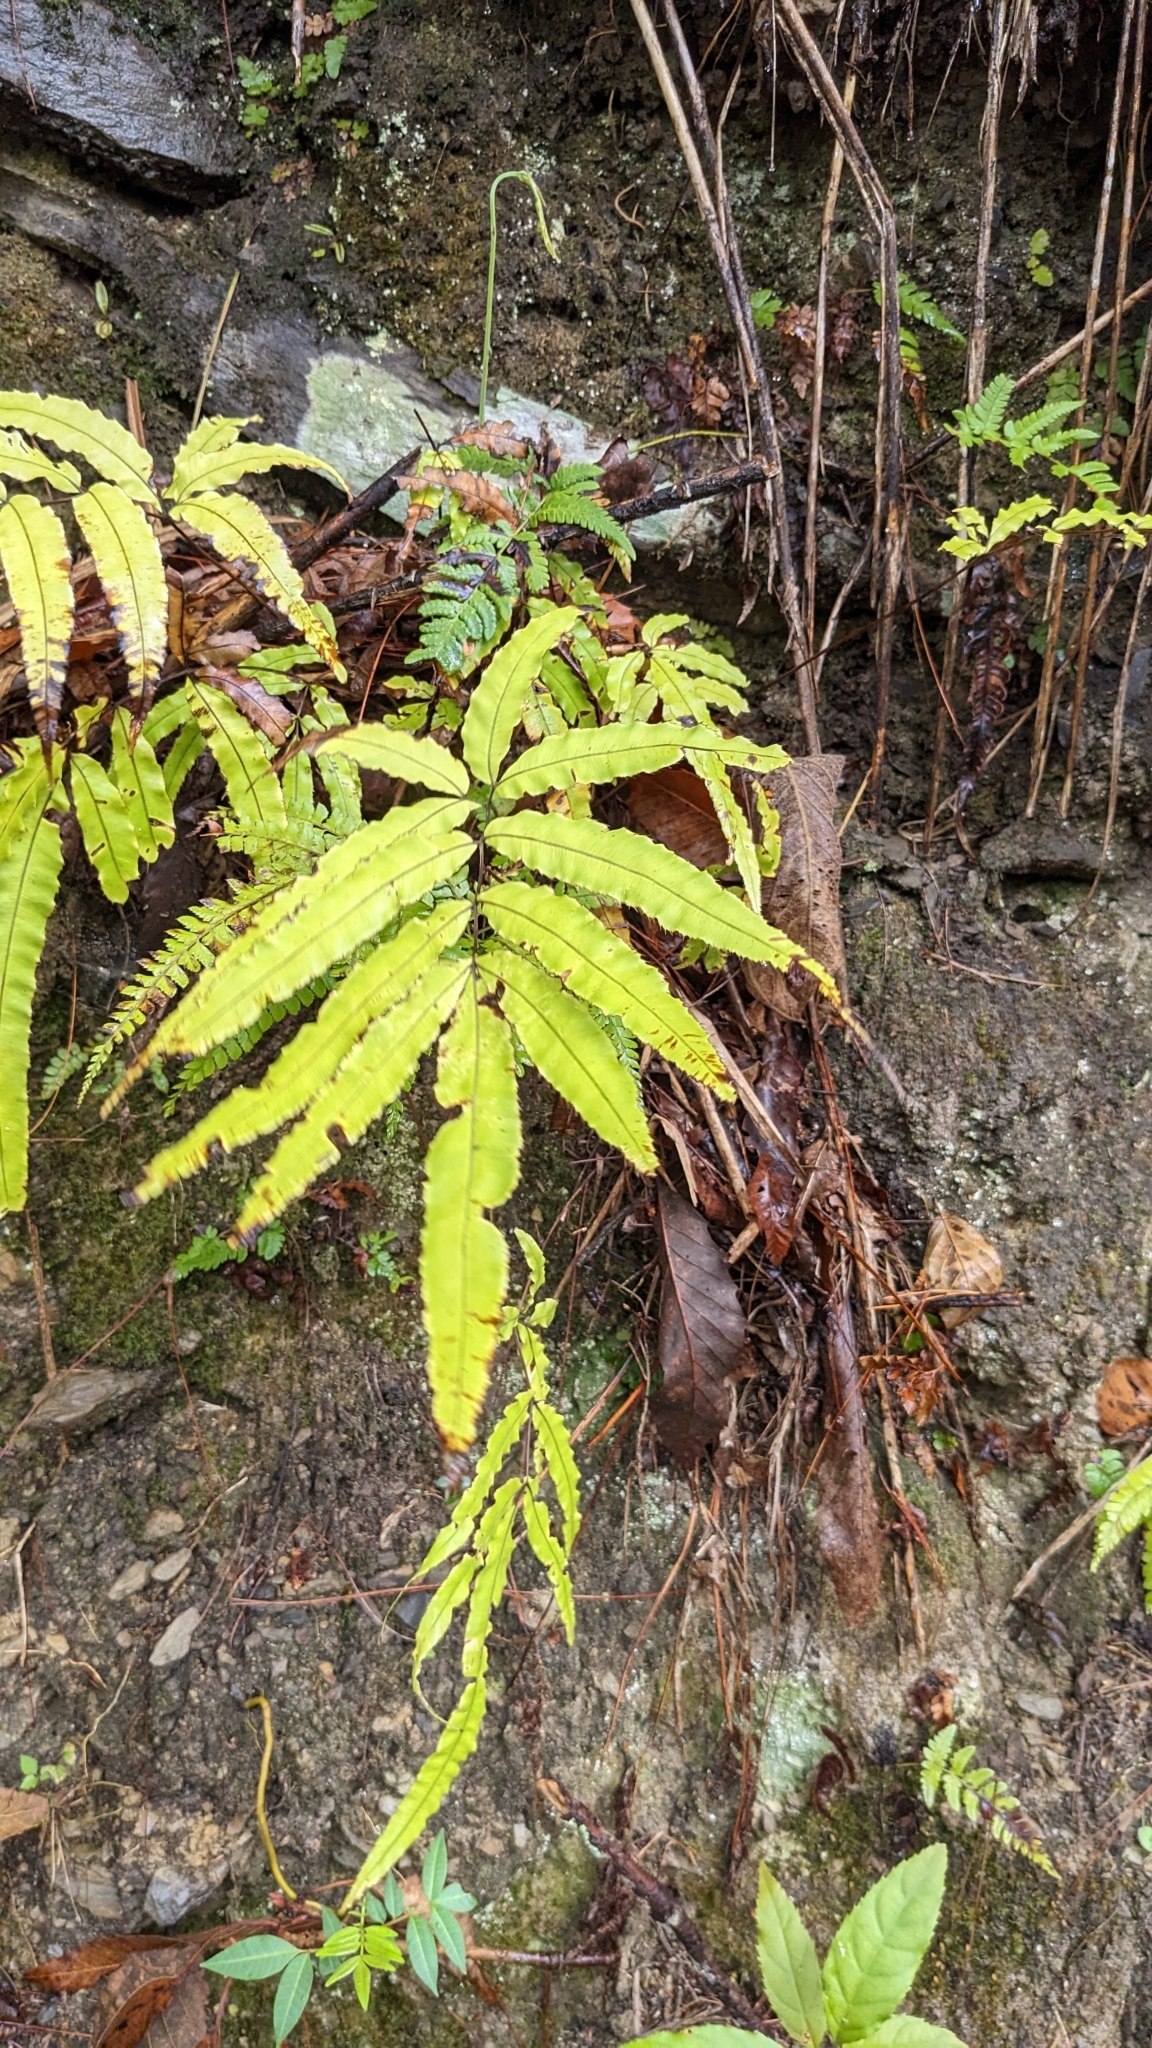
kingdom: Plantae
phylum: Tracheophyta
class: Polypodiopsida
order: Polypodiales
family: Pteridaceae
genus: Pteris
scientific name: Pteris cretica
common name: Ribbon fern
